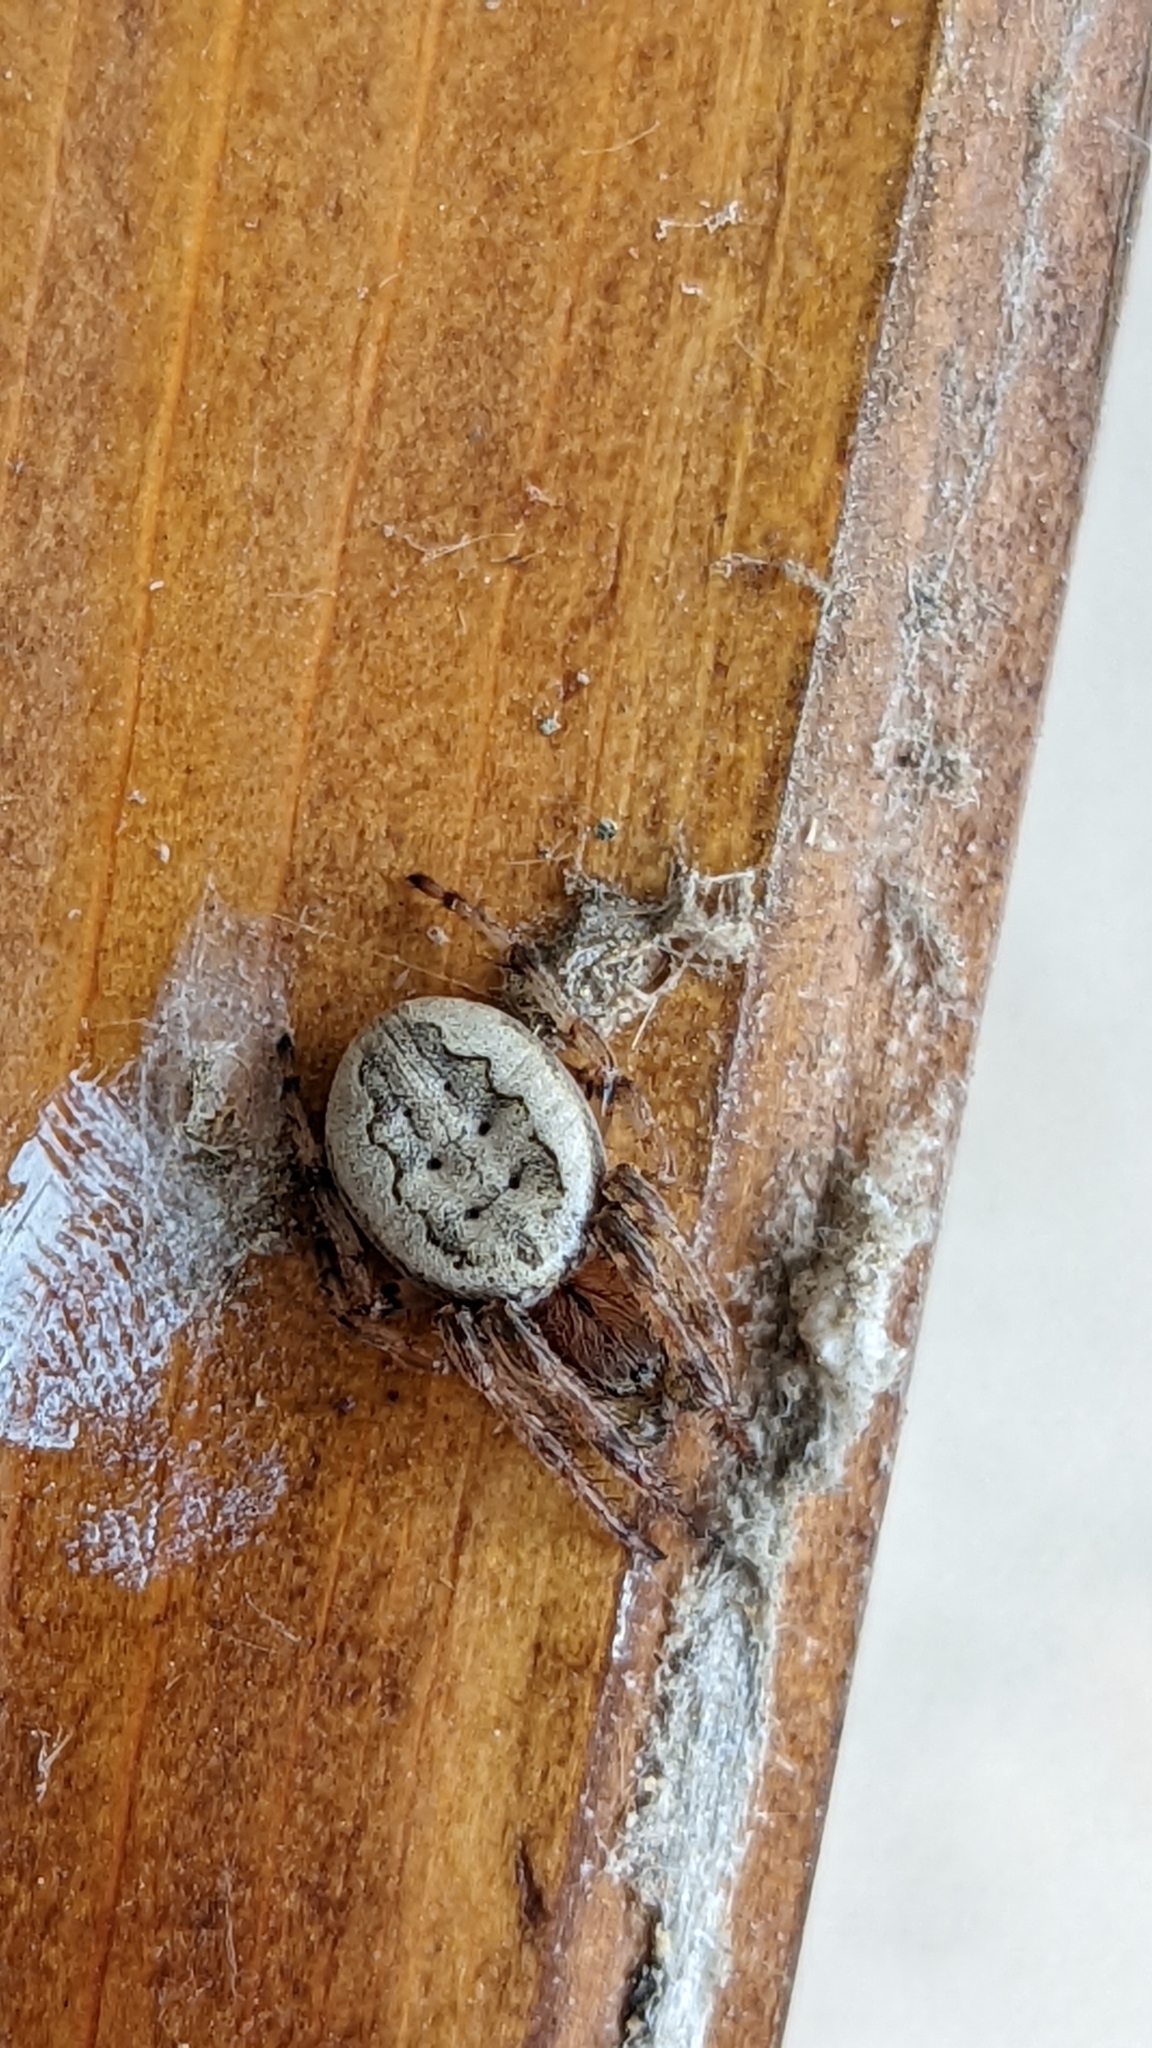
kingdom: Animalia
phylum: Arthropoda
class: Arachnida
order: Araneae
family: Araneidae
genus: Larinioides
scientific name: Larinioides cornutus
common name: Furrow orbweaver
